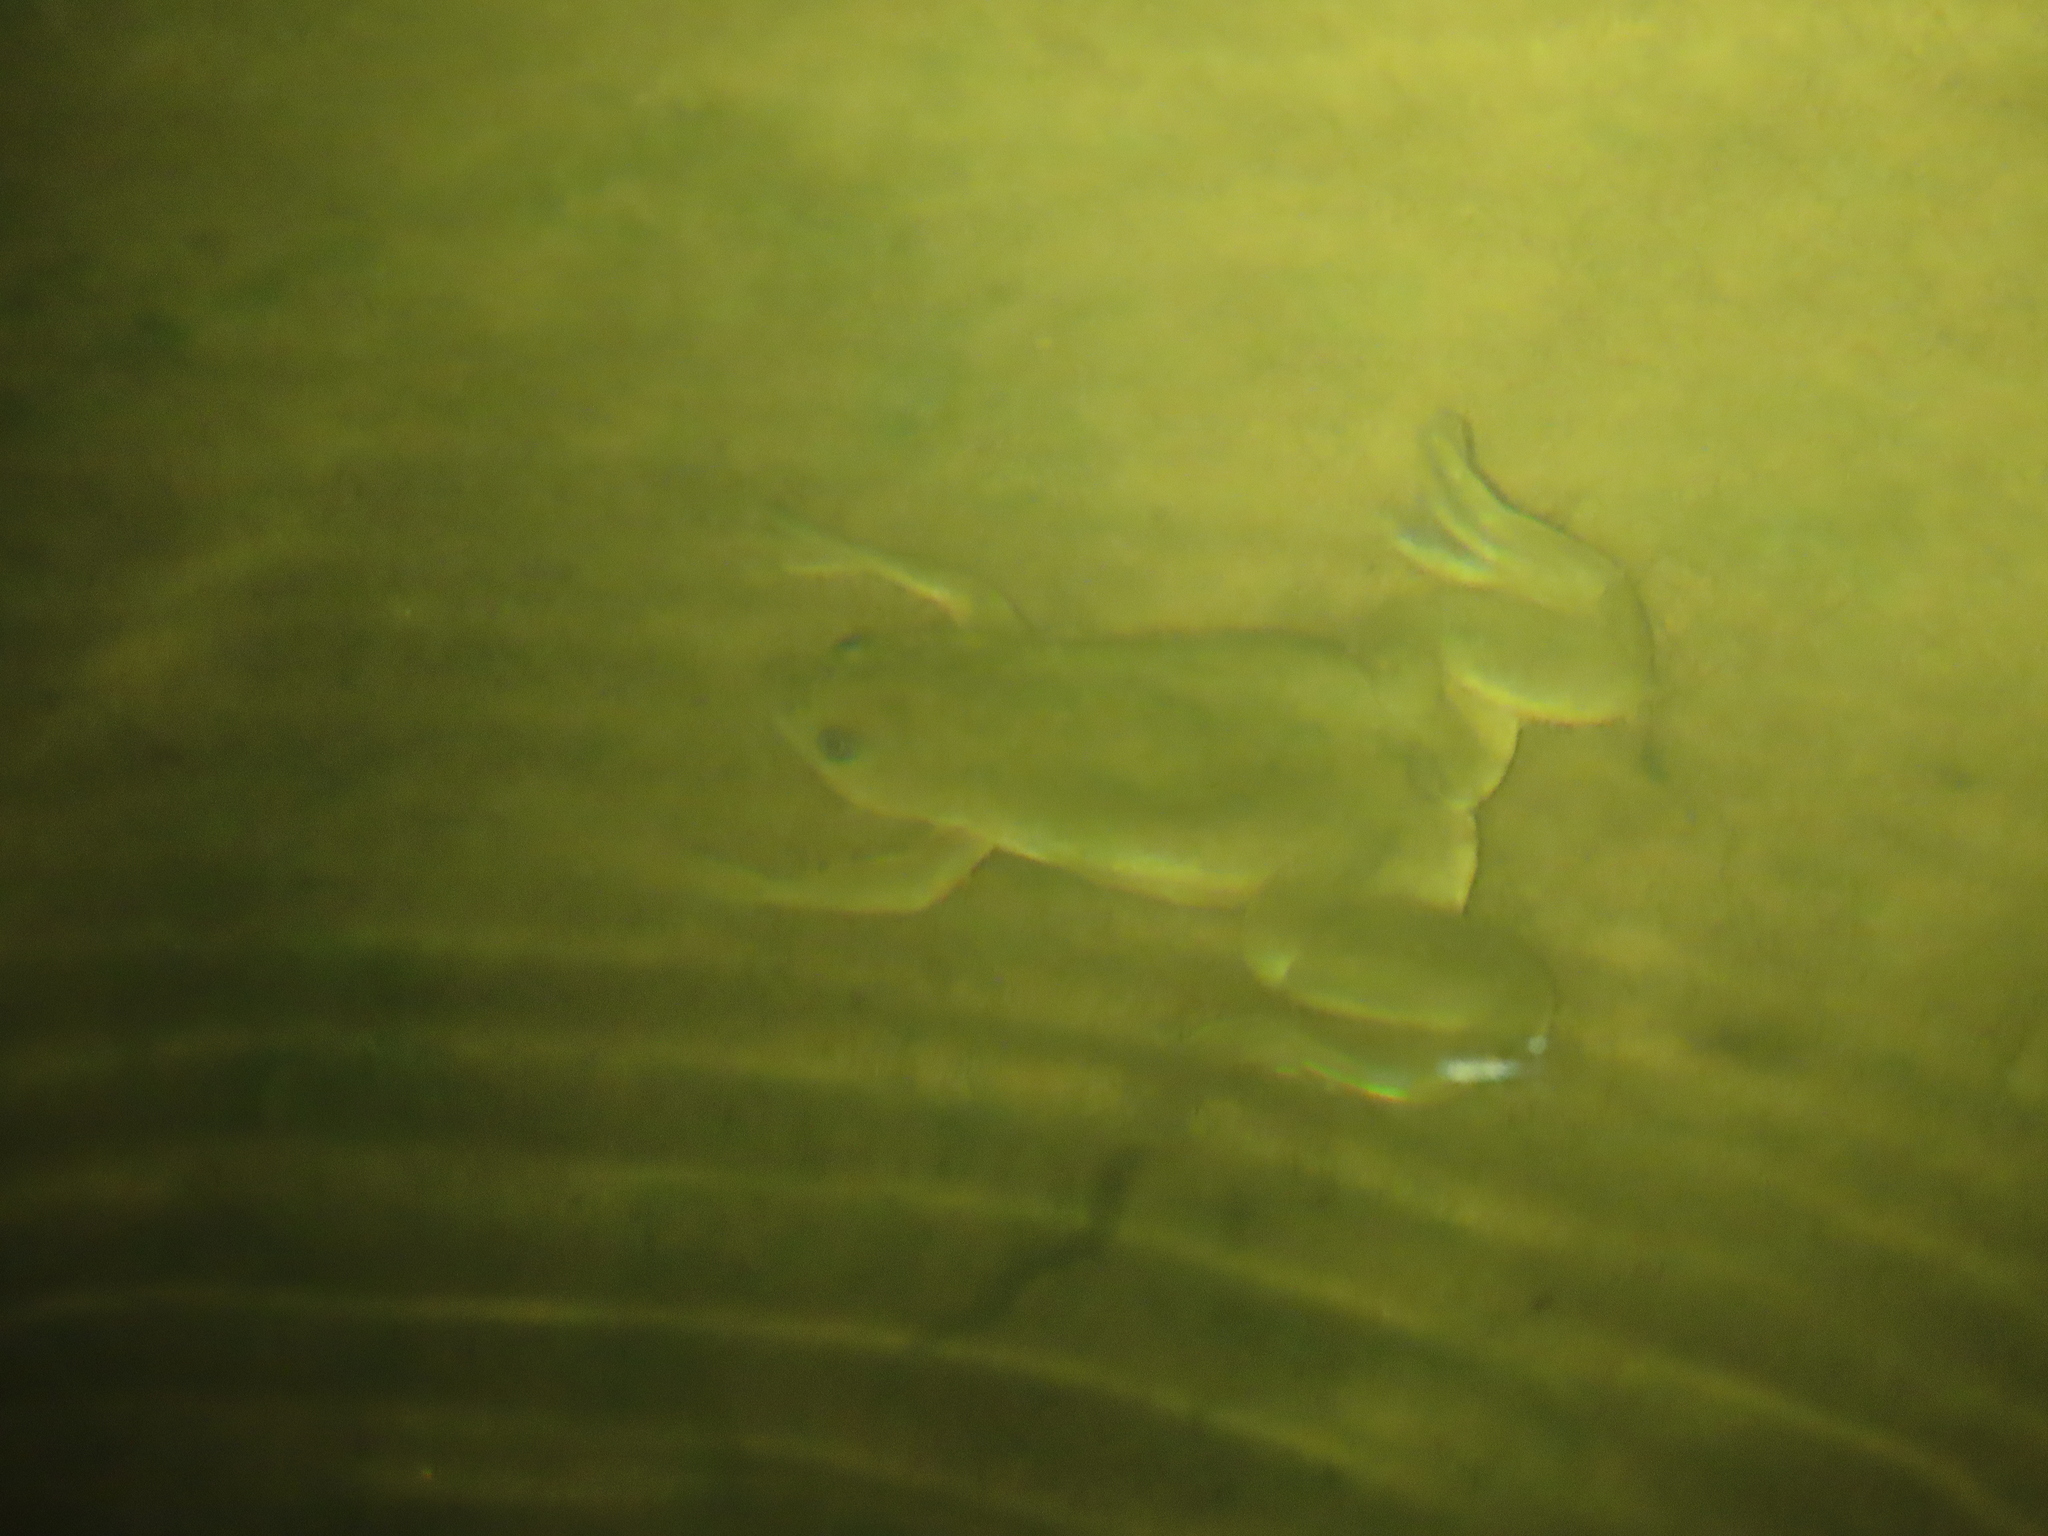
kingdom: Animalia
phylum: Chordata
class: Amphibia
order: Anura
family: Pipidae
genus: Xenopus
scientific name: Xenopus laevis
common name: African clawed frog
